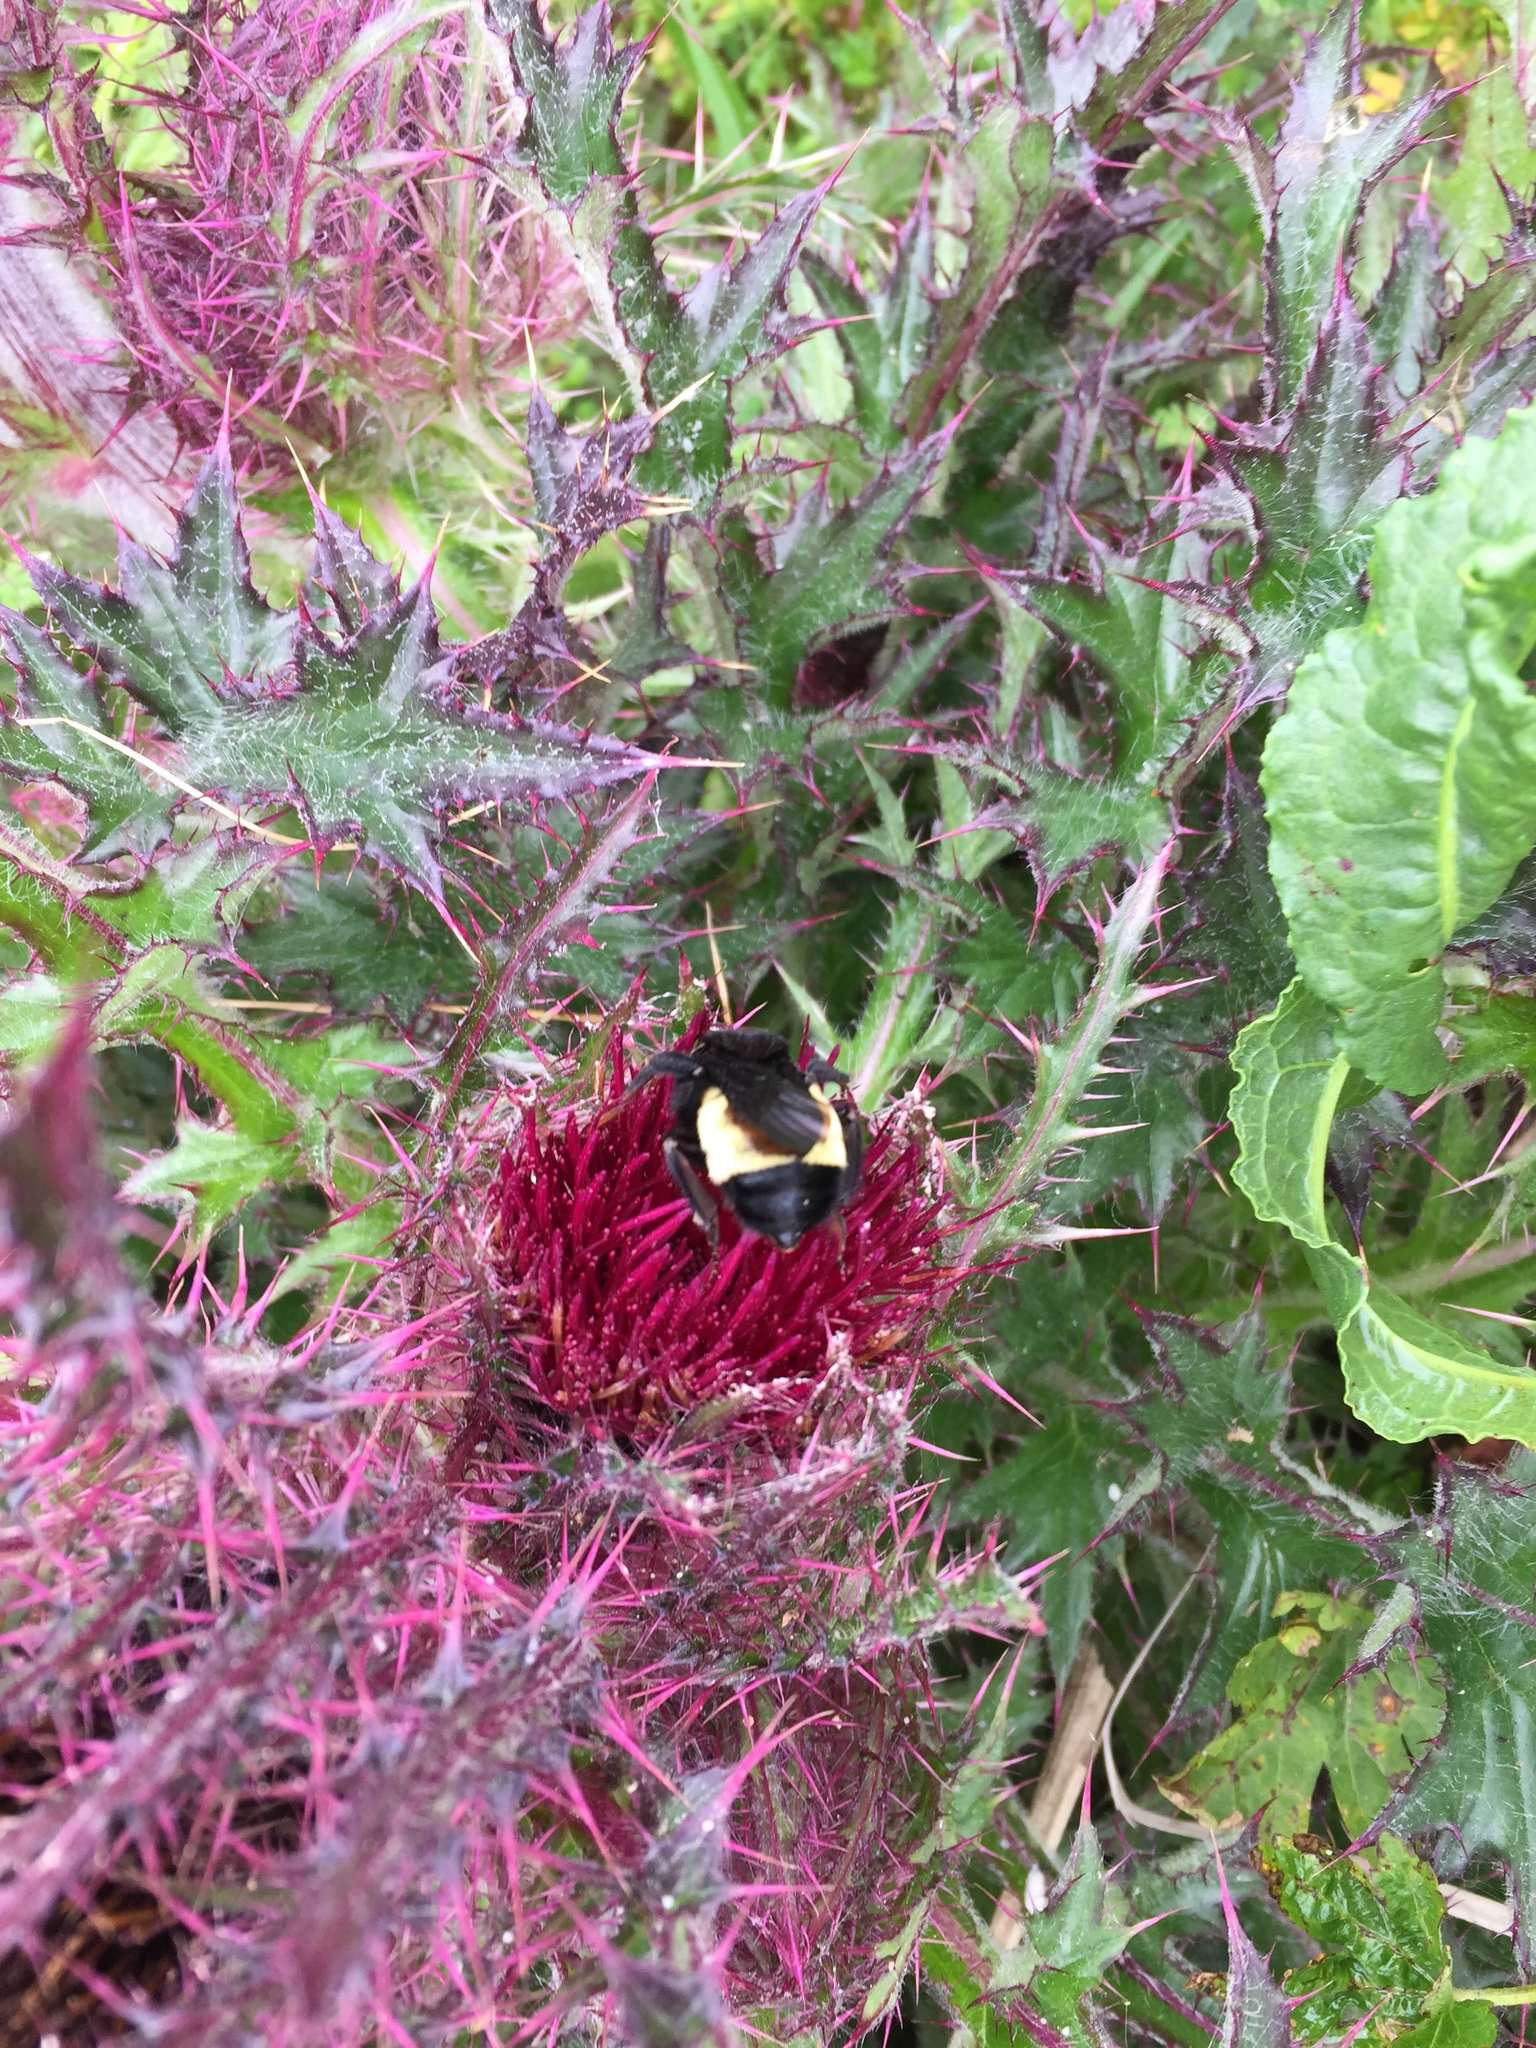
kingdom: Animalia
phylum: Arthropoda
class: Insecta
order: Hymenoptera
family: Apidae
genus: Bombus
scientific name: Bombus pensylvanicus
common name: Bumble bee
